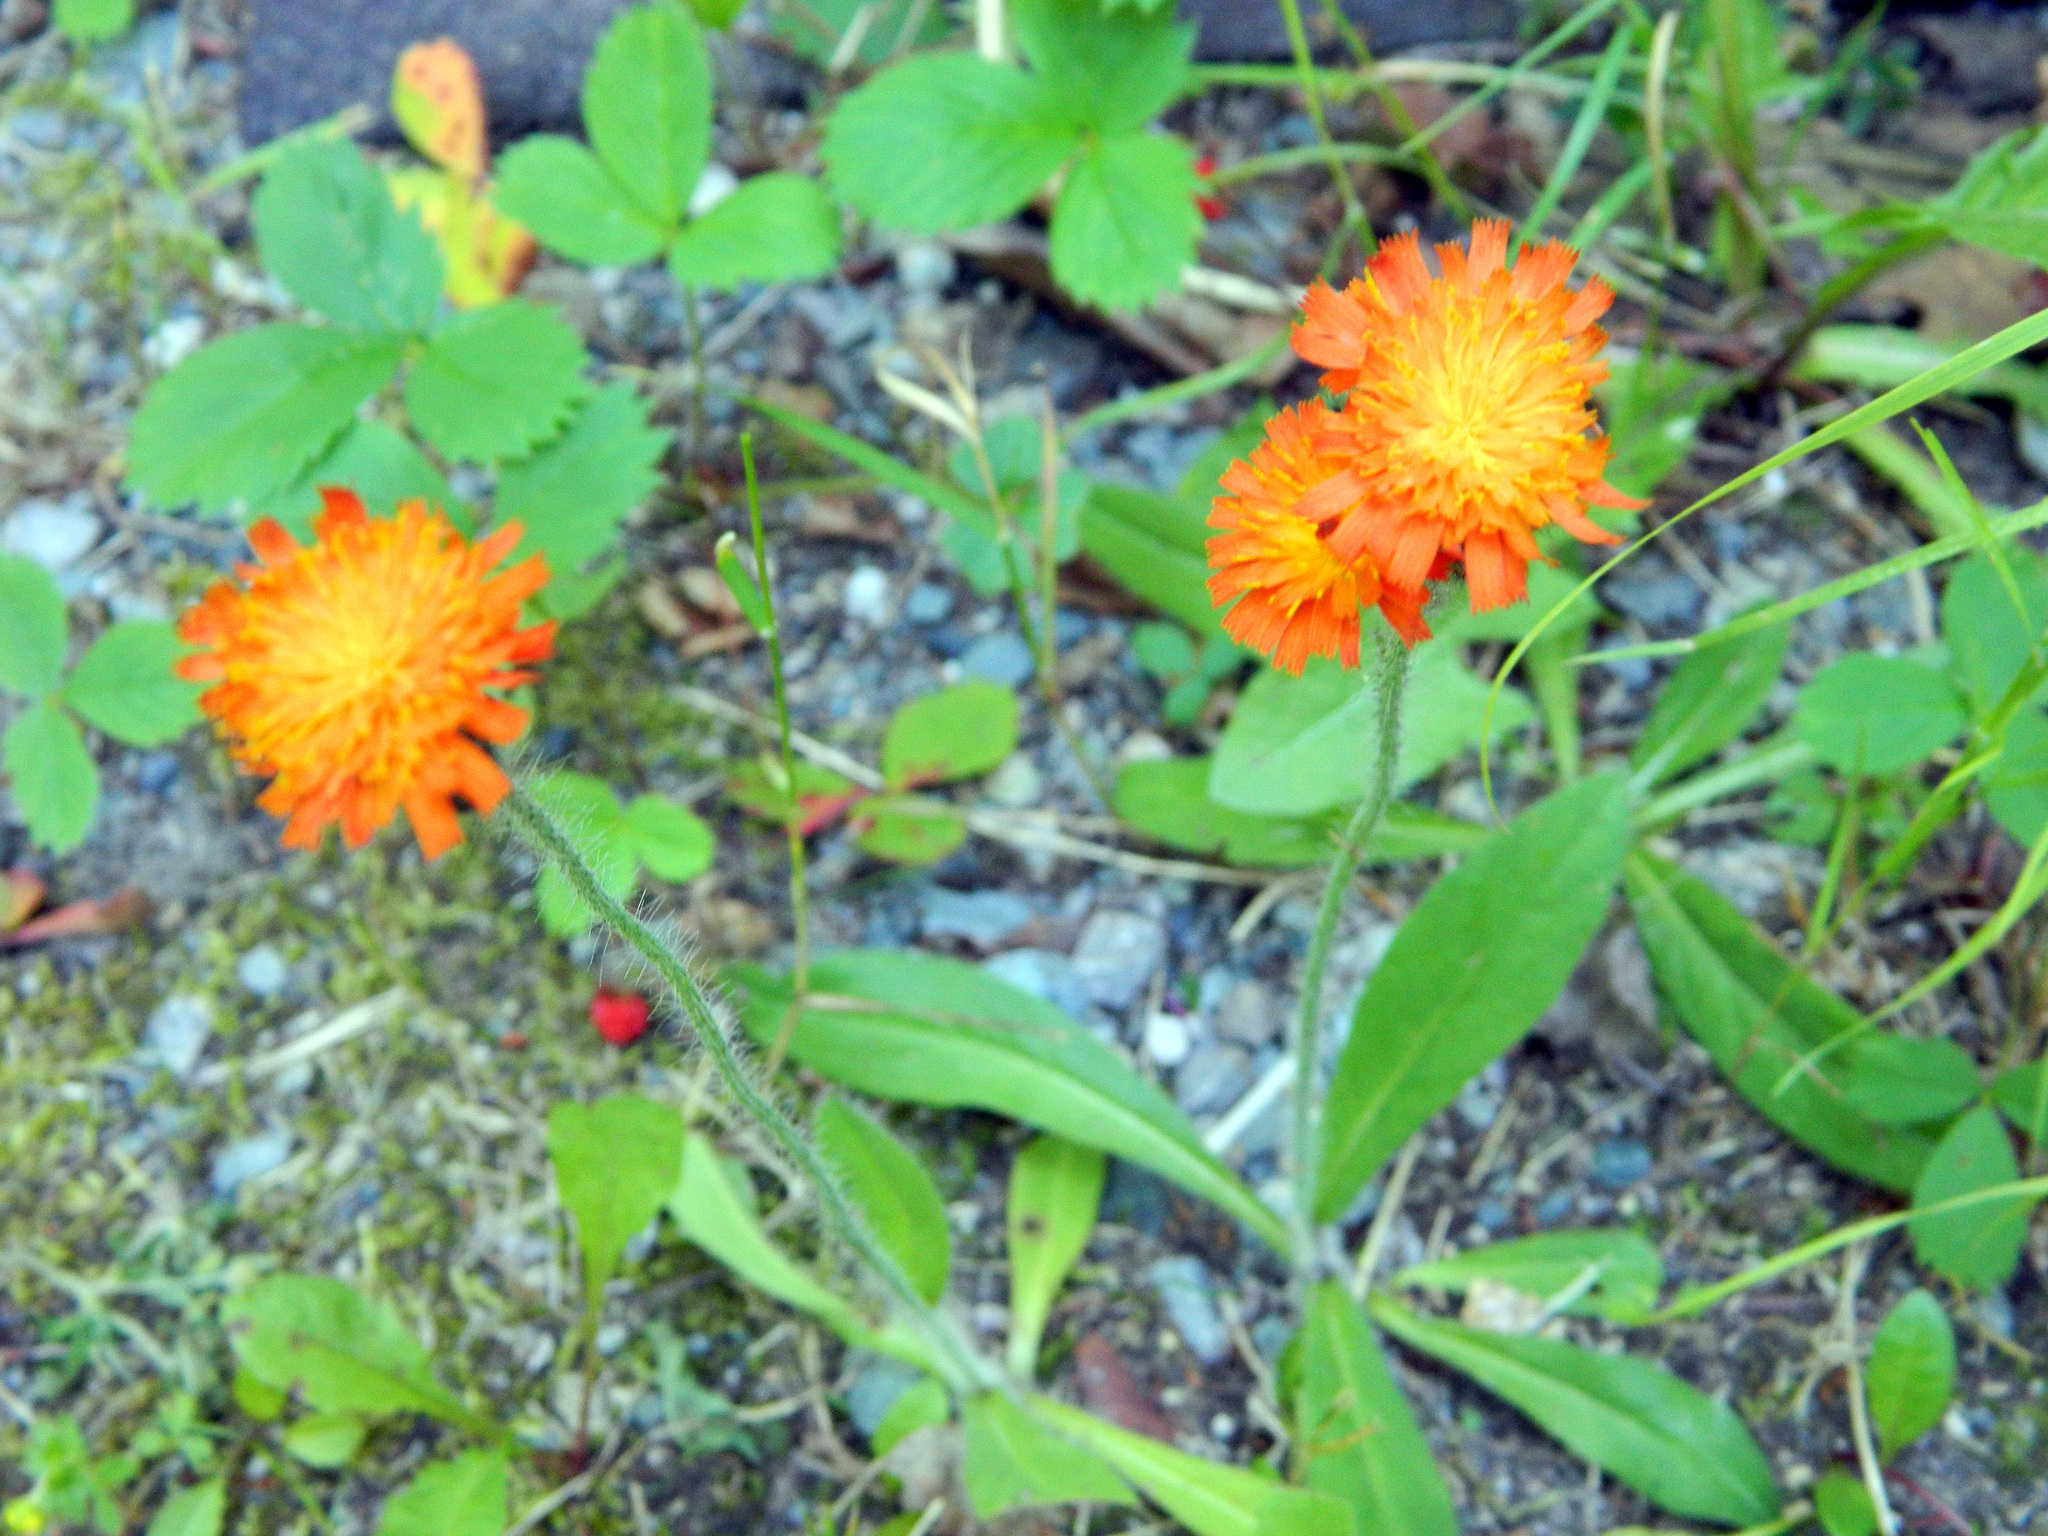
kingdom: Plantae
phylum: Tracheophyta
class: Magnoliopsida
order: Asterales
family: Asteraceae
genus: Pilosella
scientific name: Pilosella aurantiaca
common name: Fox-and-cubs
